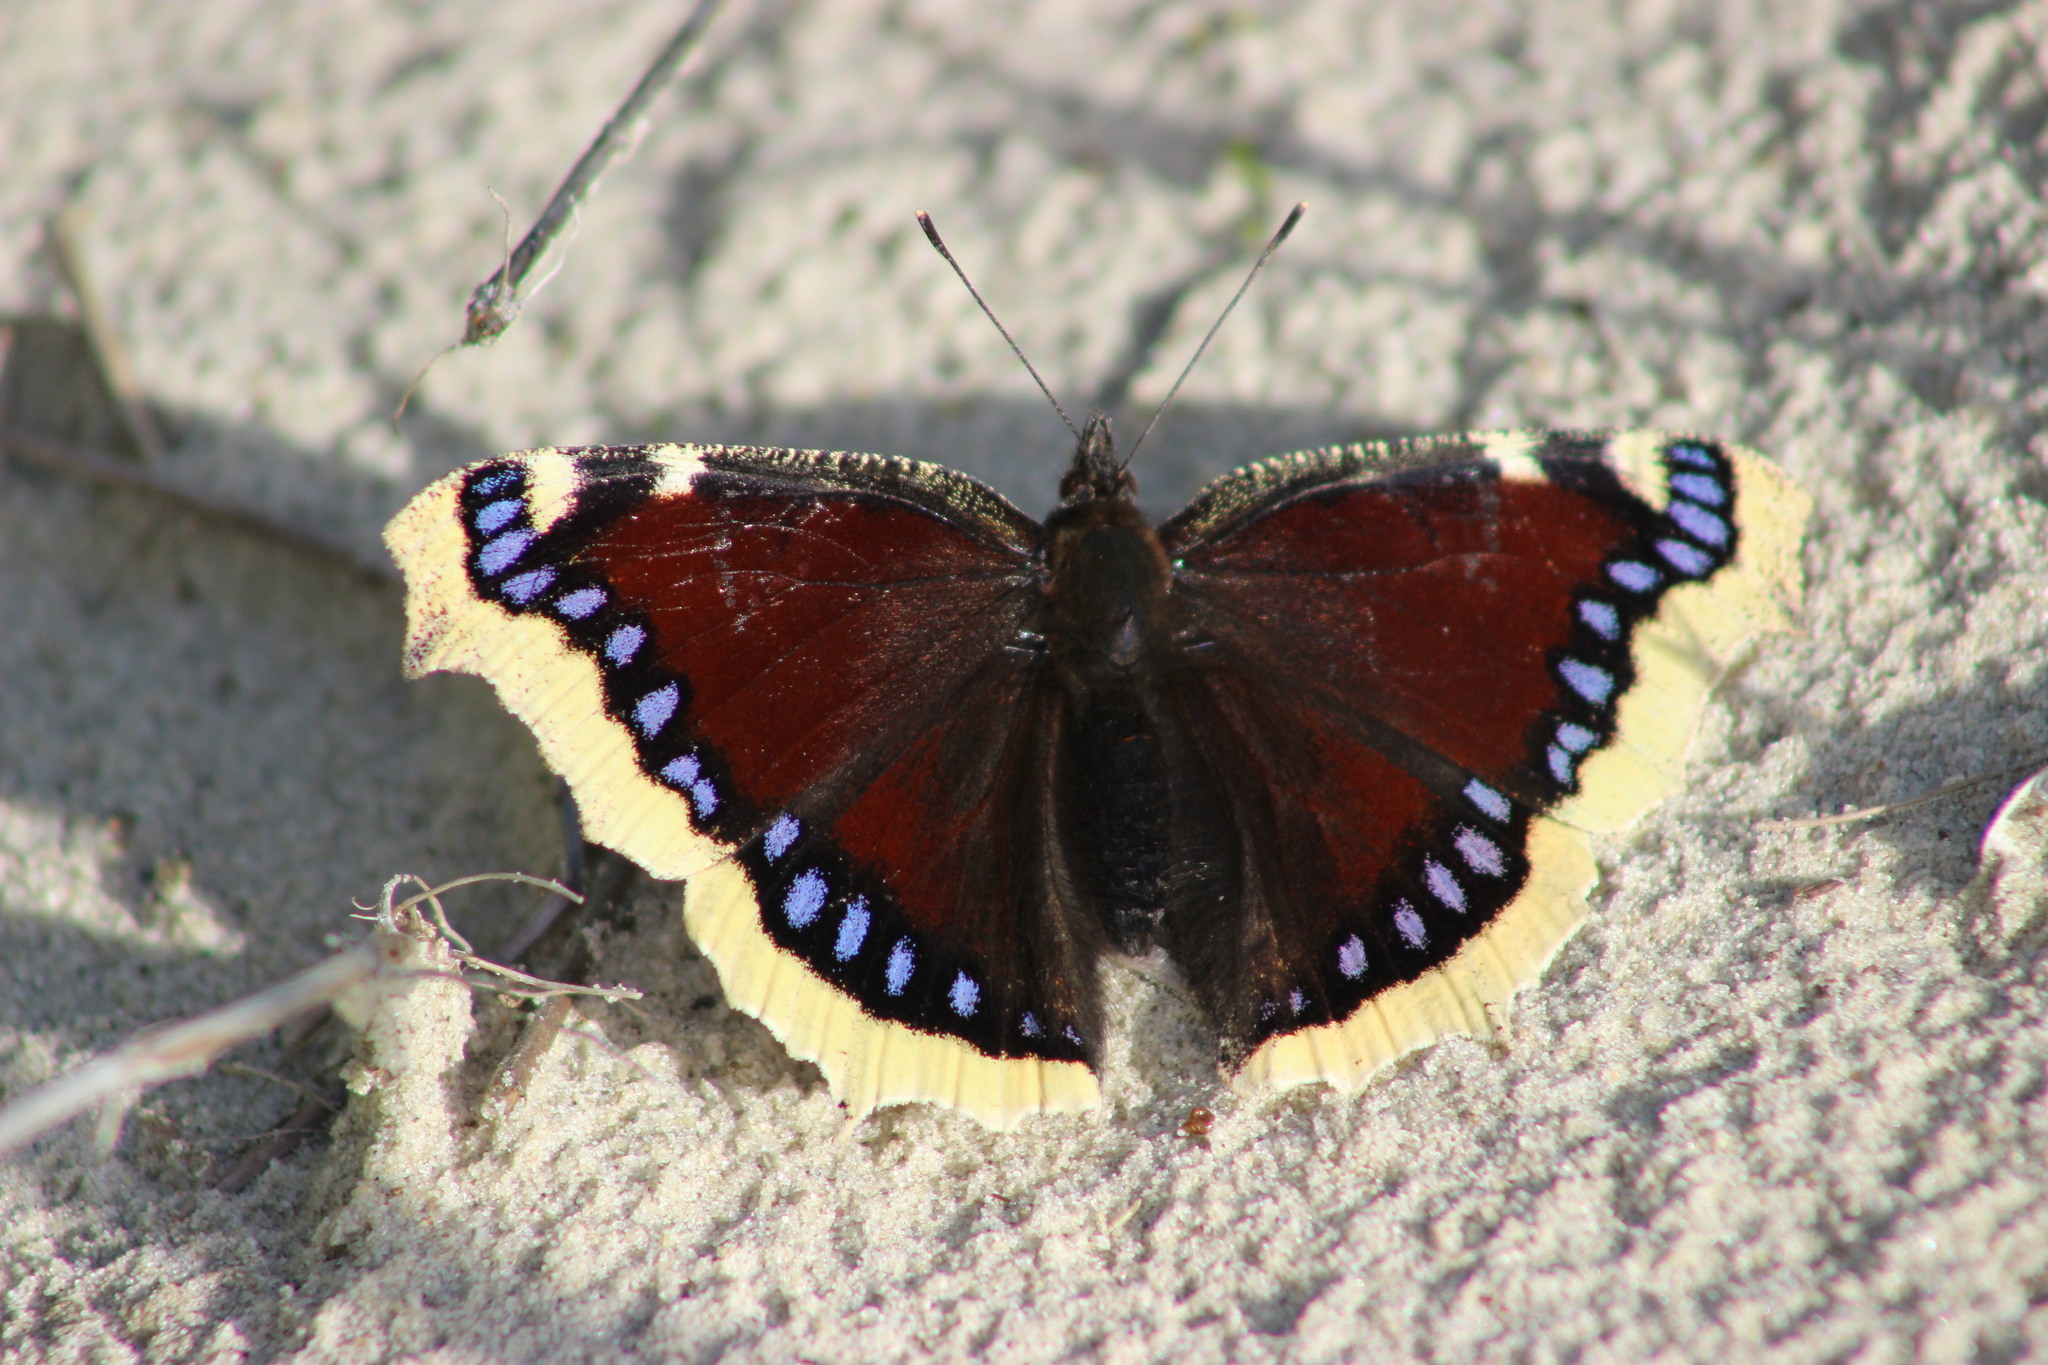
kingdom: Animalia
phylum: Arthropoda
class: Insecta
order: Lepidoptera
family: Nymphalidae
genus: Nymphalis
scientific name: Nymphalis antiopa
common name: Camberwell beauty
